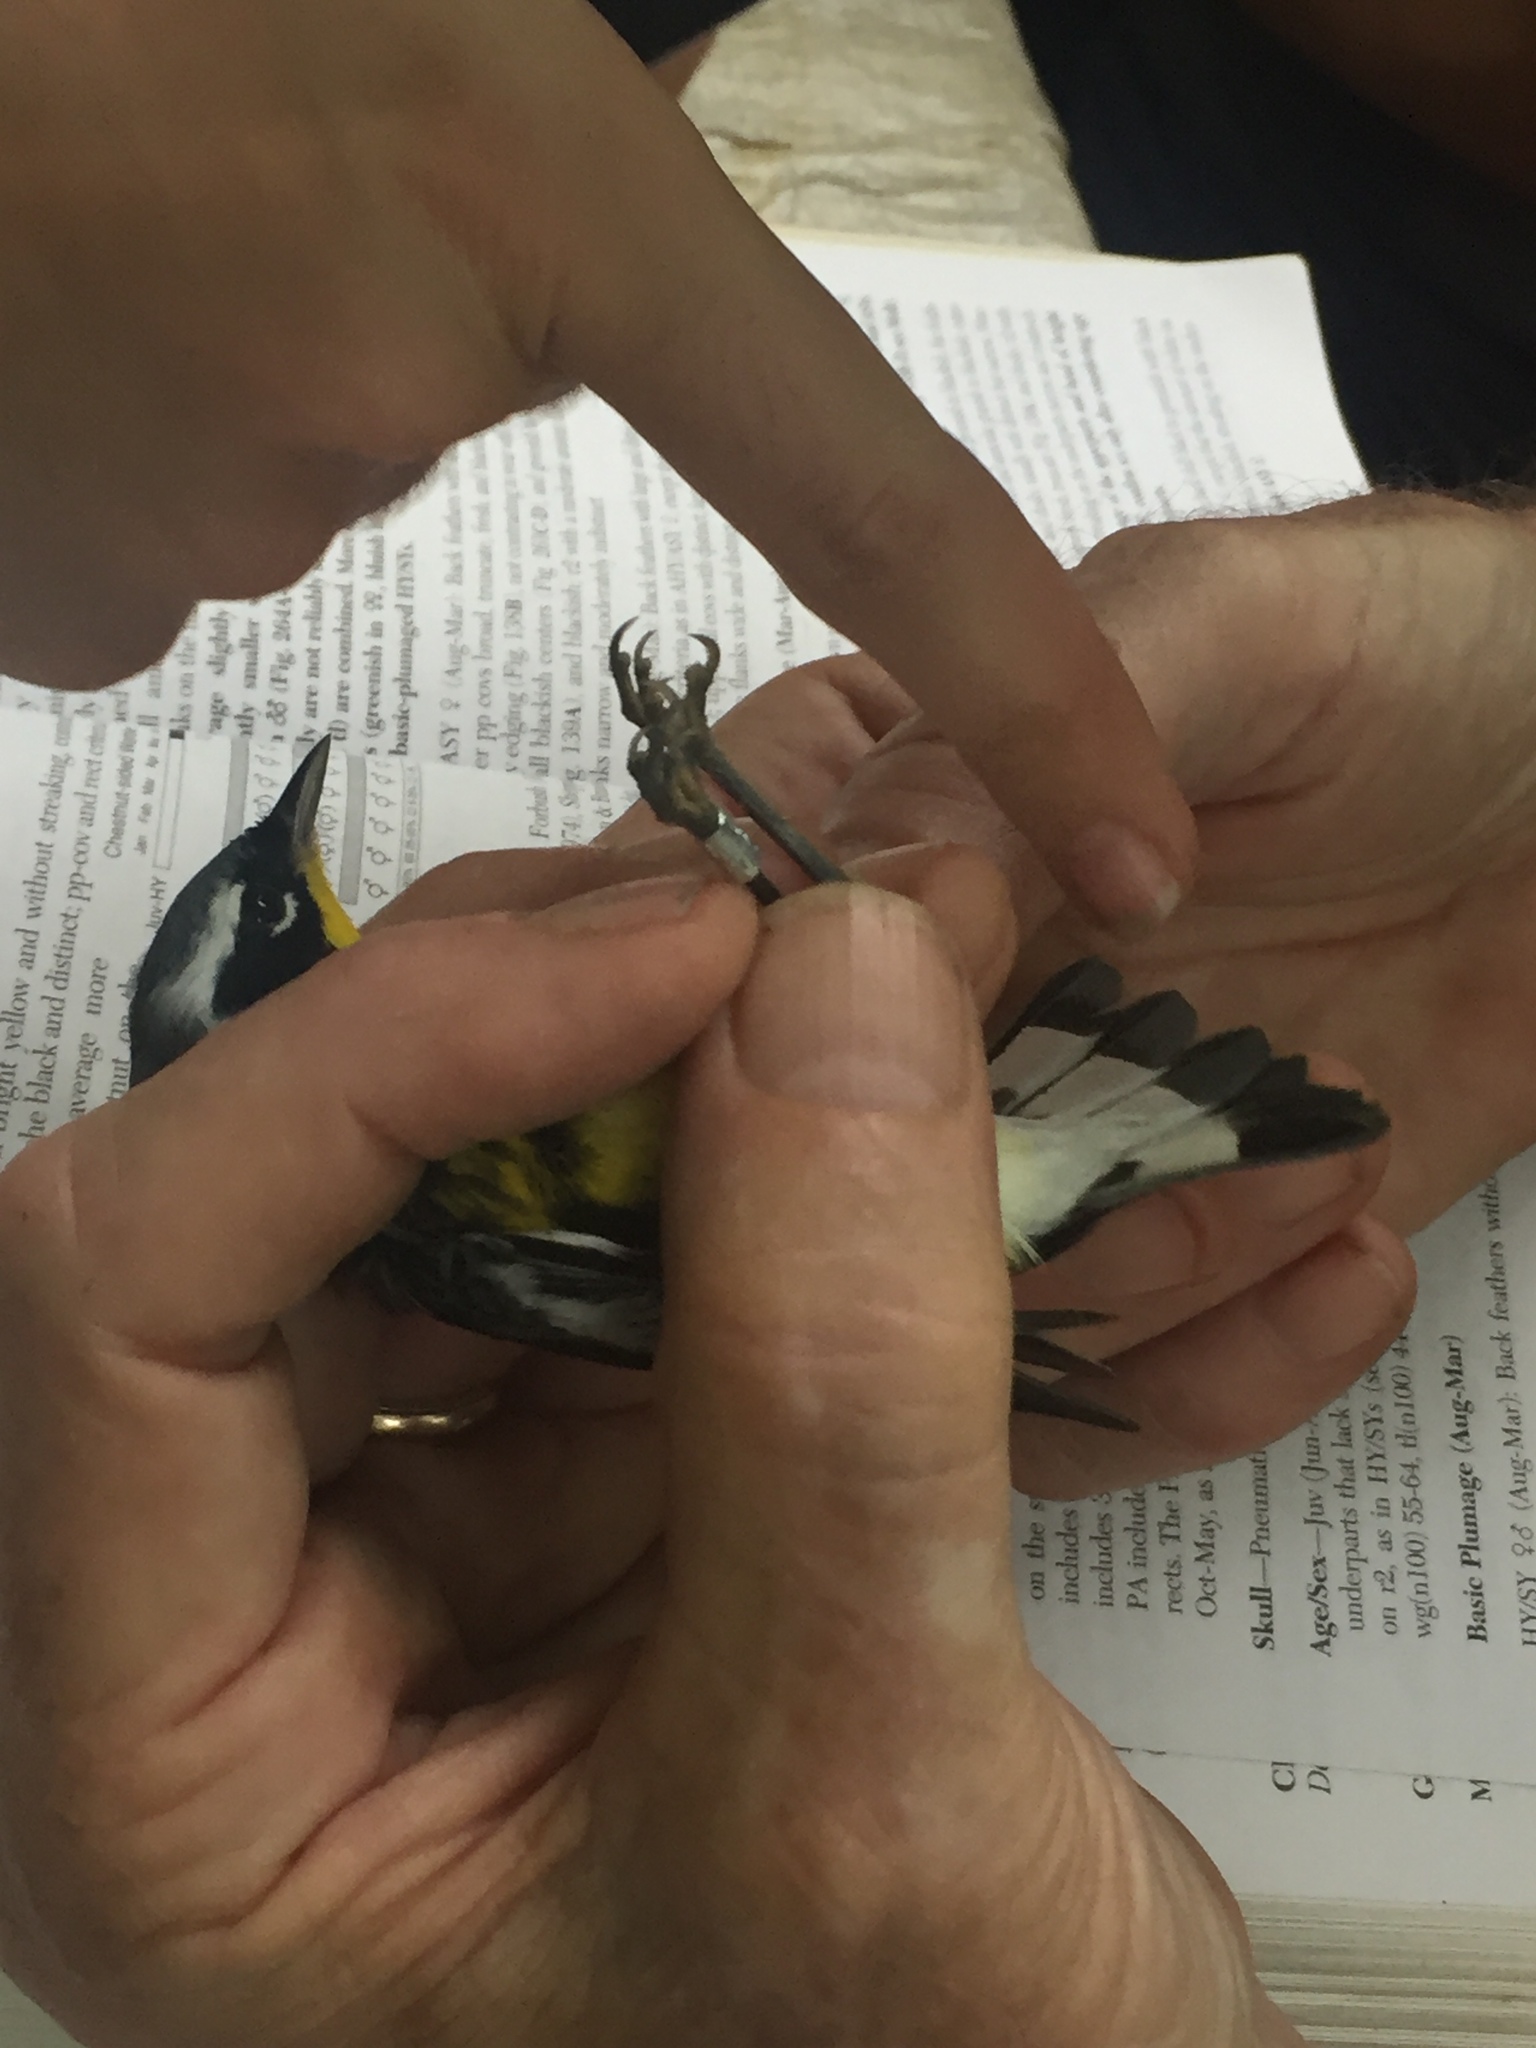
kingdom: Animalia
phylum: Chordata
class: Aves
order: Passeriformes
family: Parulidae
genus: Setophaga
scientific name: Setophaga magnolia
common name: Magnolia warbler
